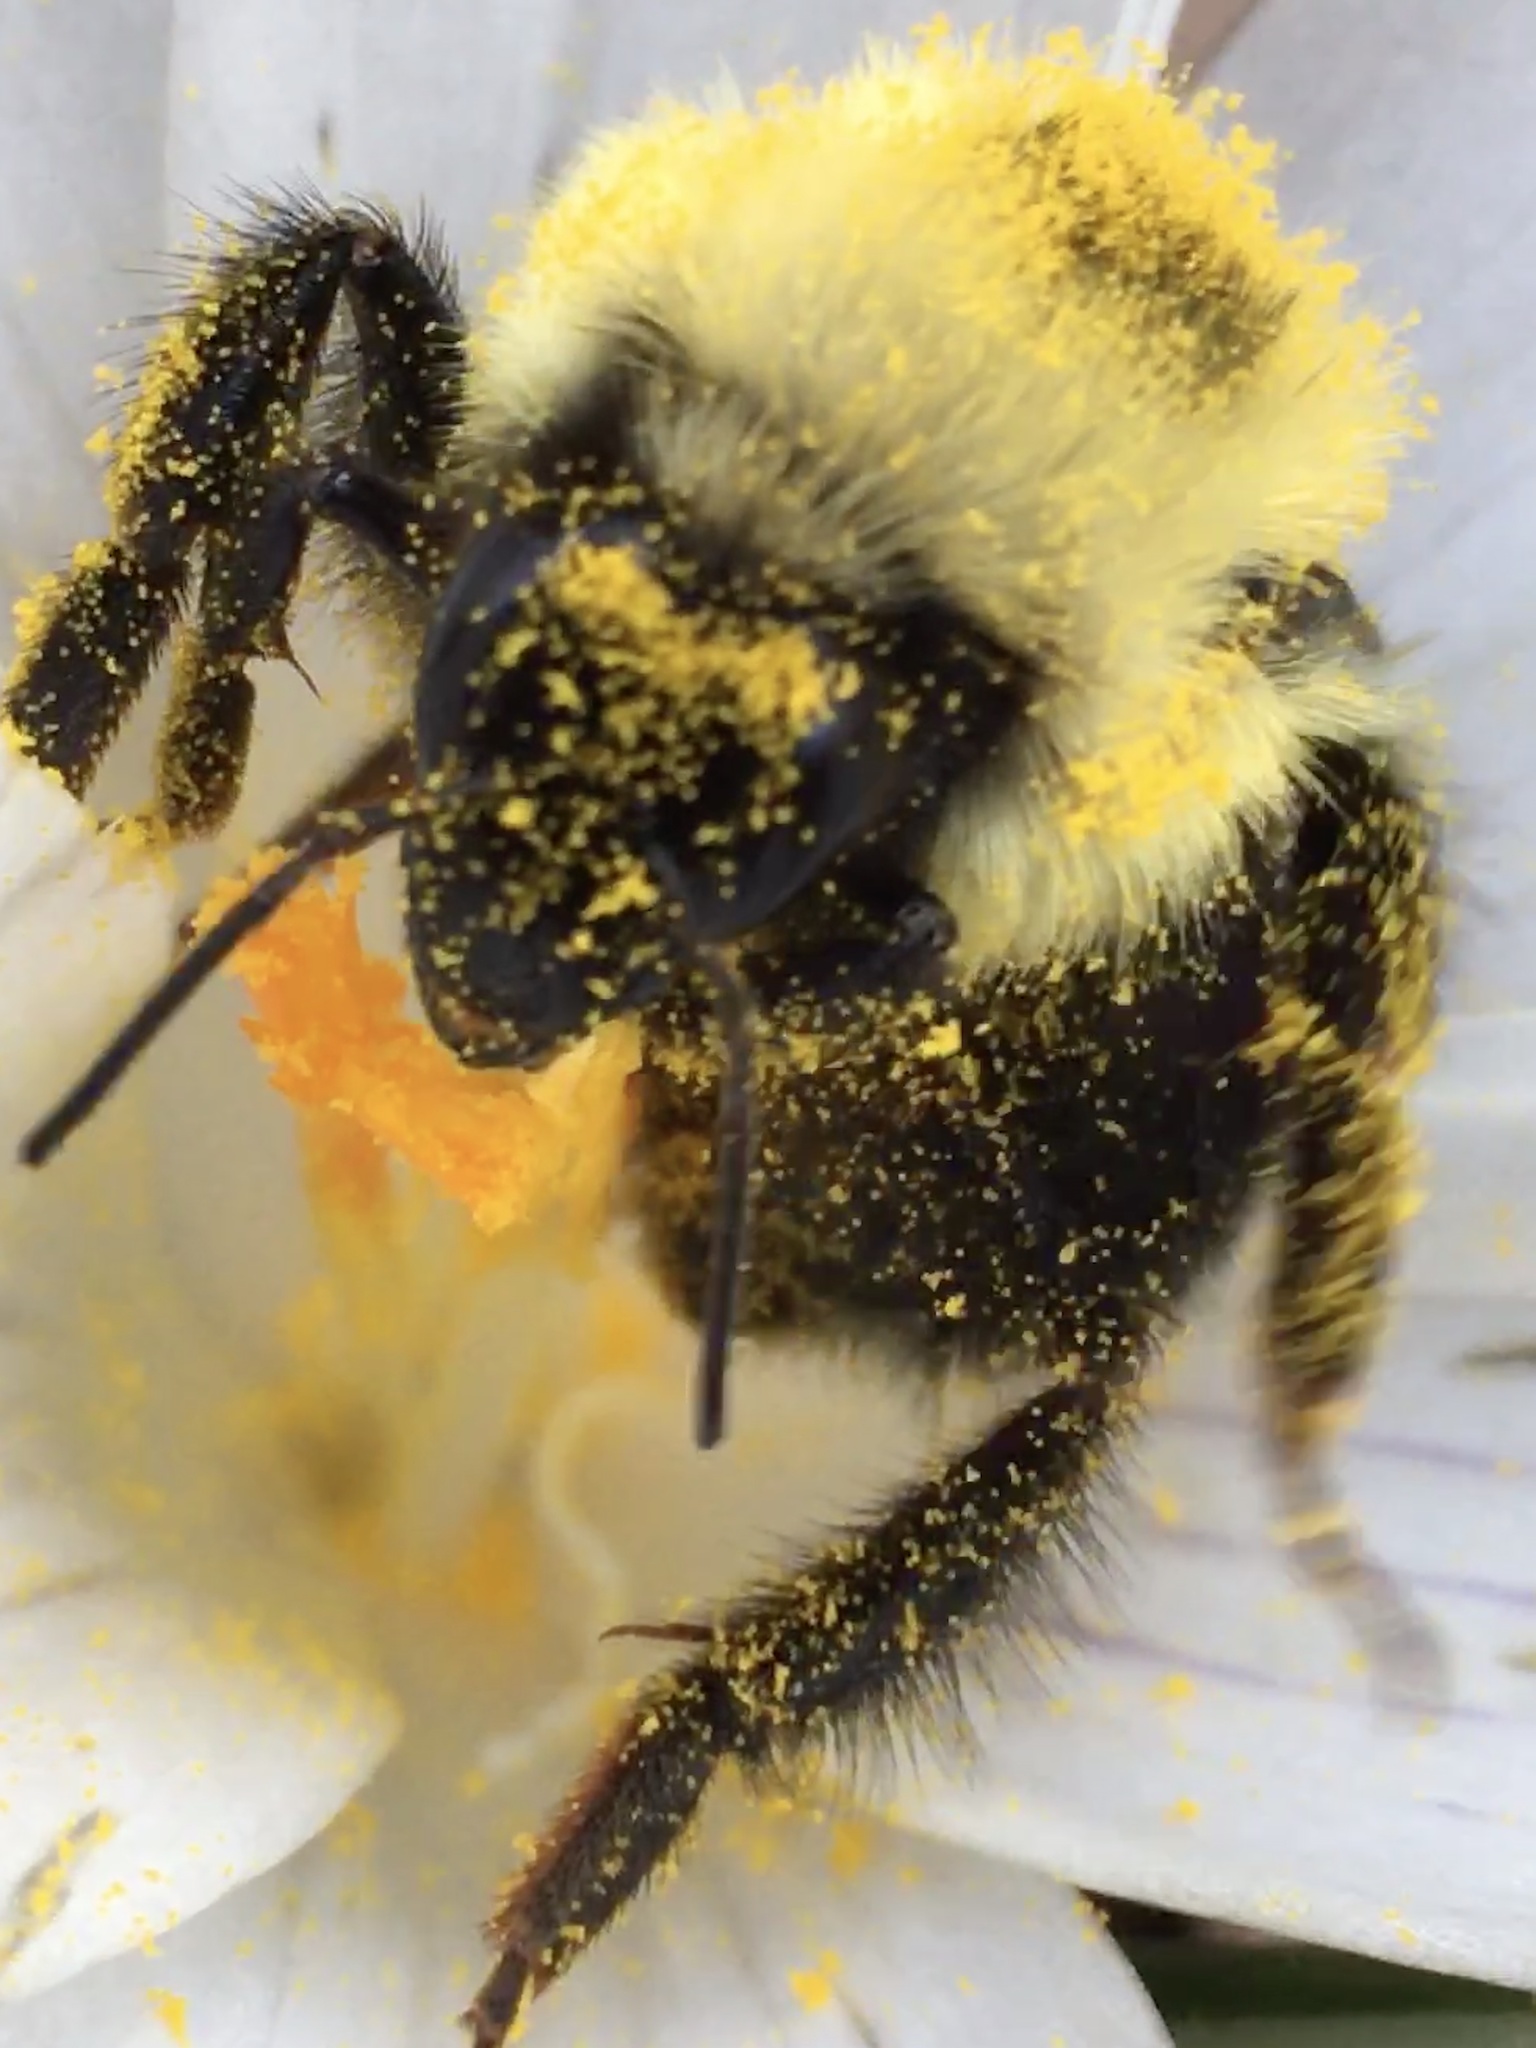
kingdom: Animalia
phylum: Arthropoda
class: Insecta
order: Hymenoptera
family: Apidae
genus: Bombus
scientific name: Bombus bimaculatus
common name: Two-spotted bumble bee
